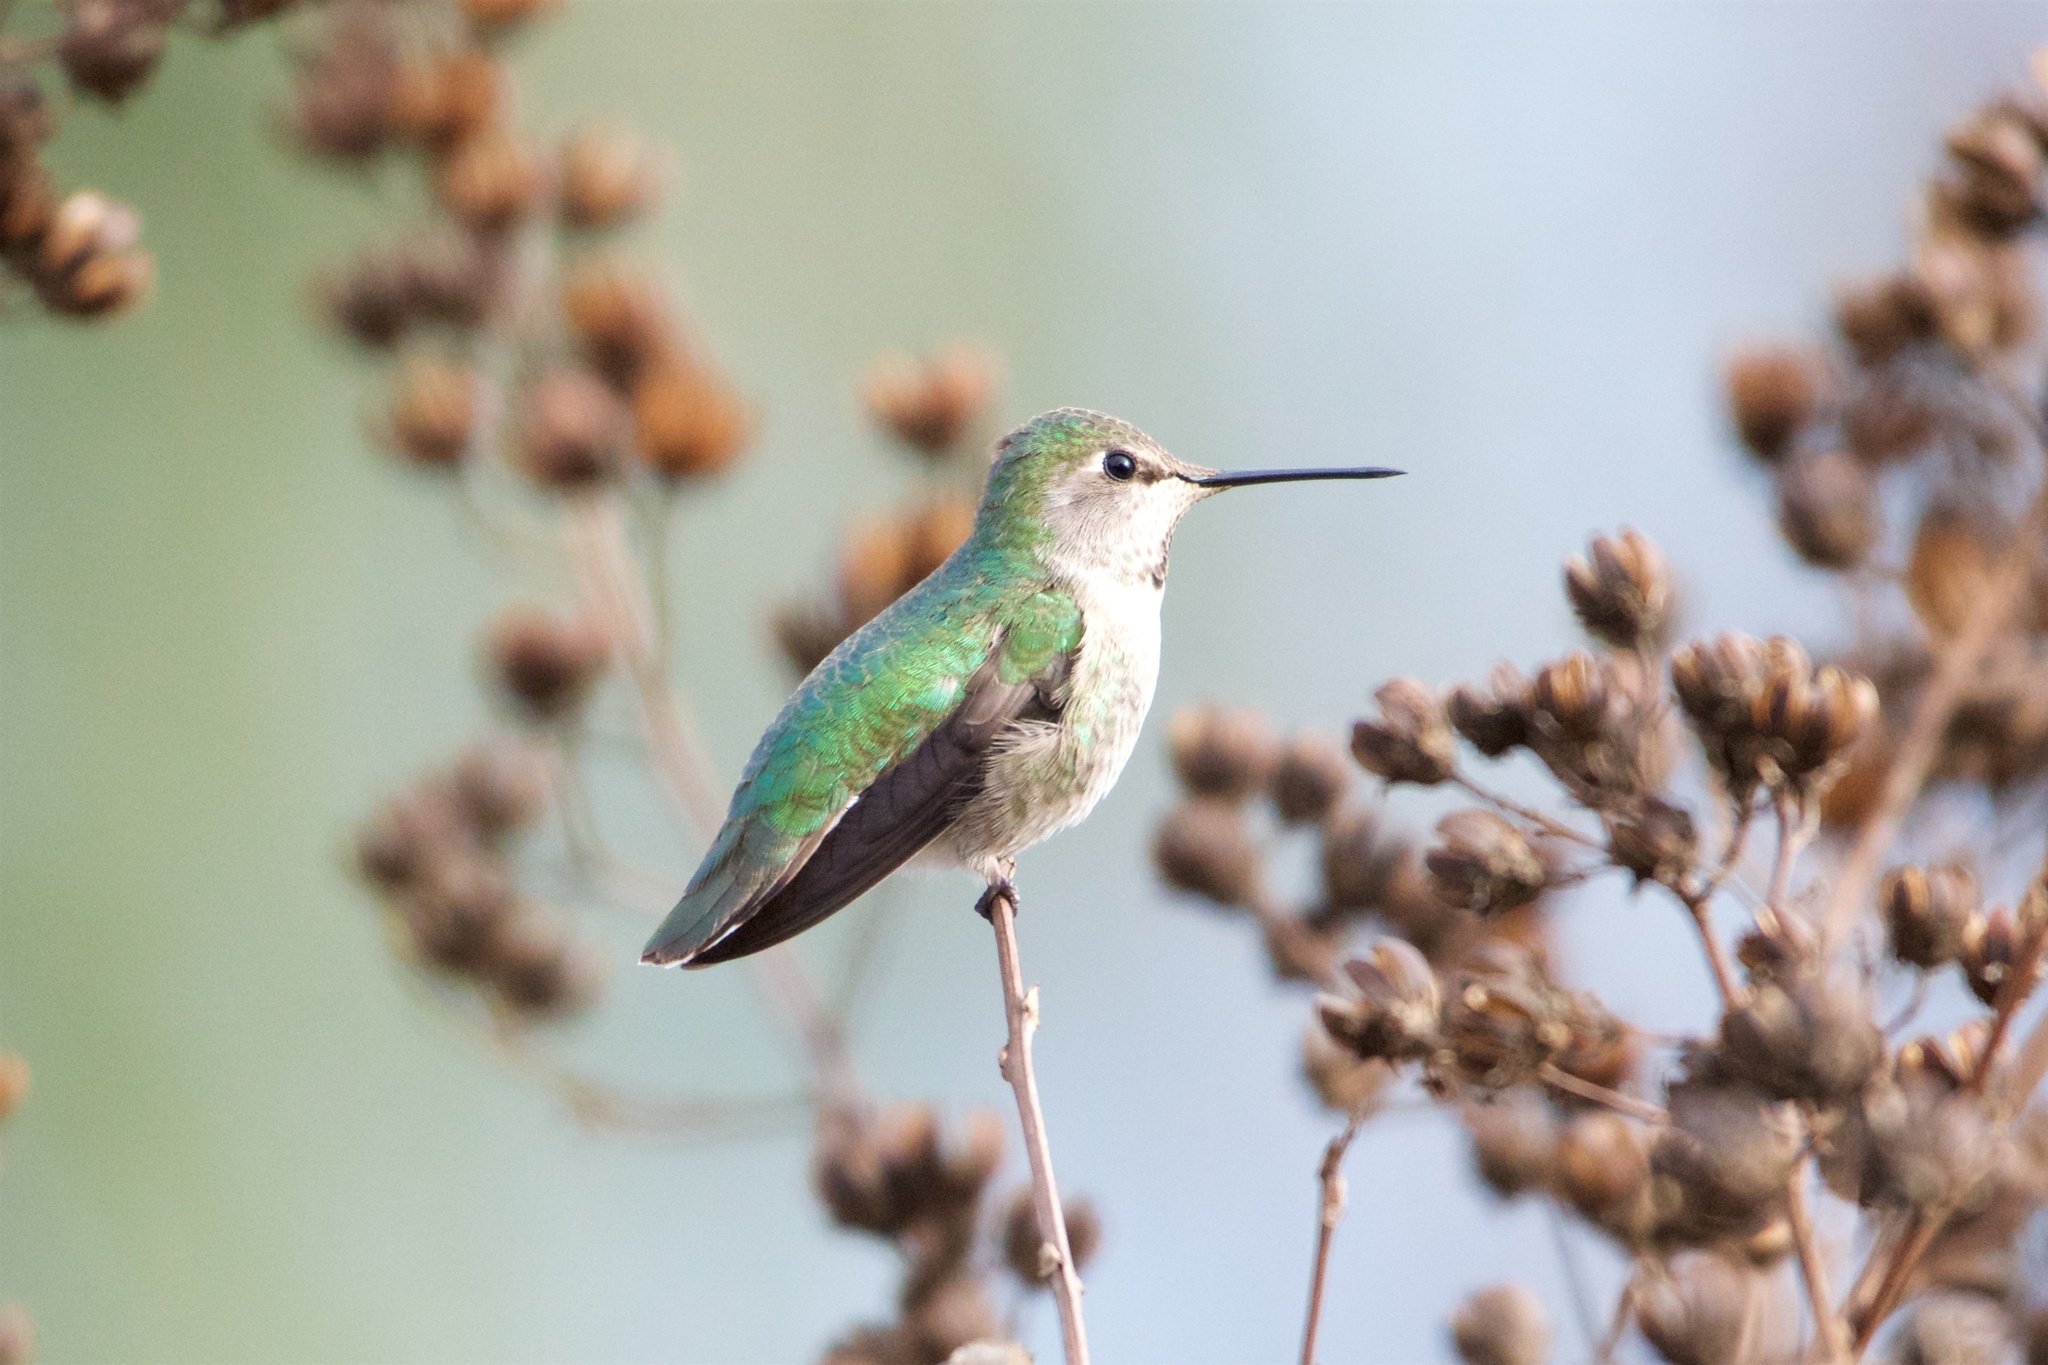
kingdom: Animalia
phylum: Chordata
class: Aves
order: Apodiformes
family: Trochilidae
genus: Calypte
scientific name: Calypte anna
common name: Anna's hummingbird
